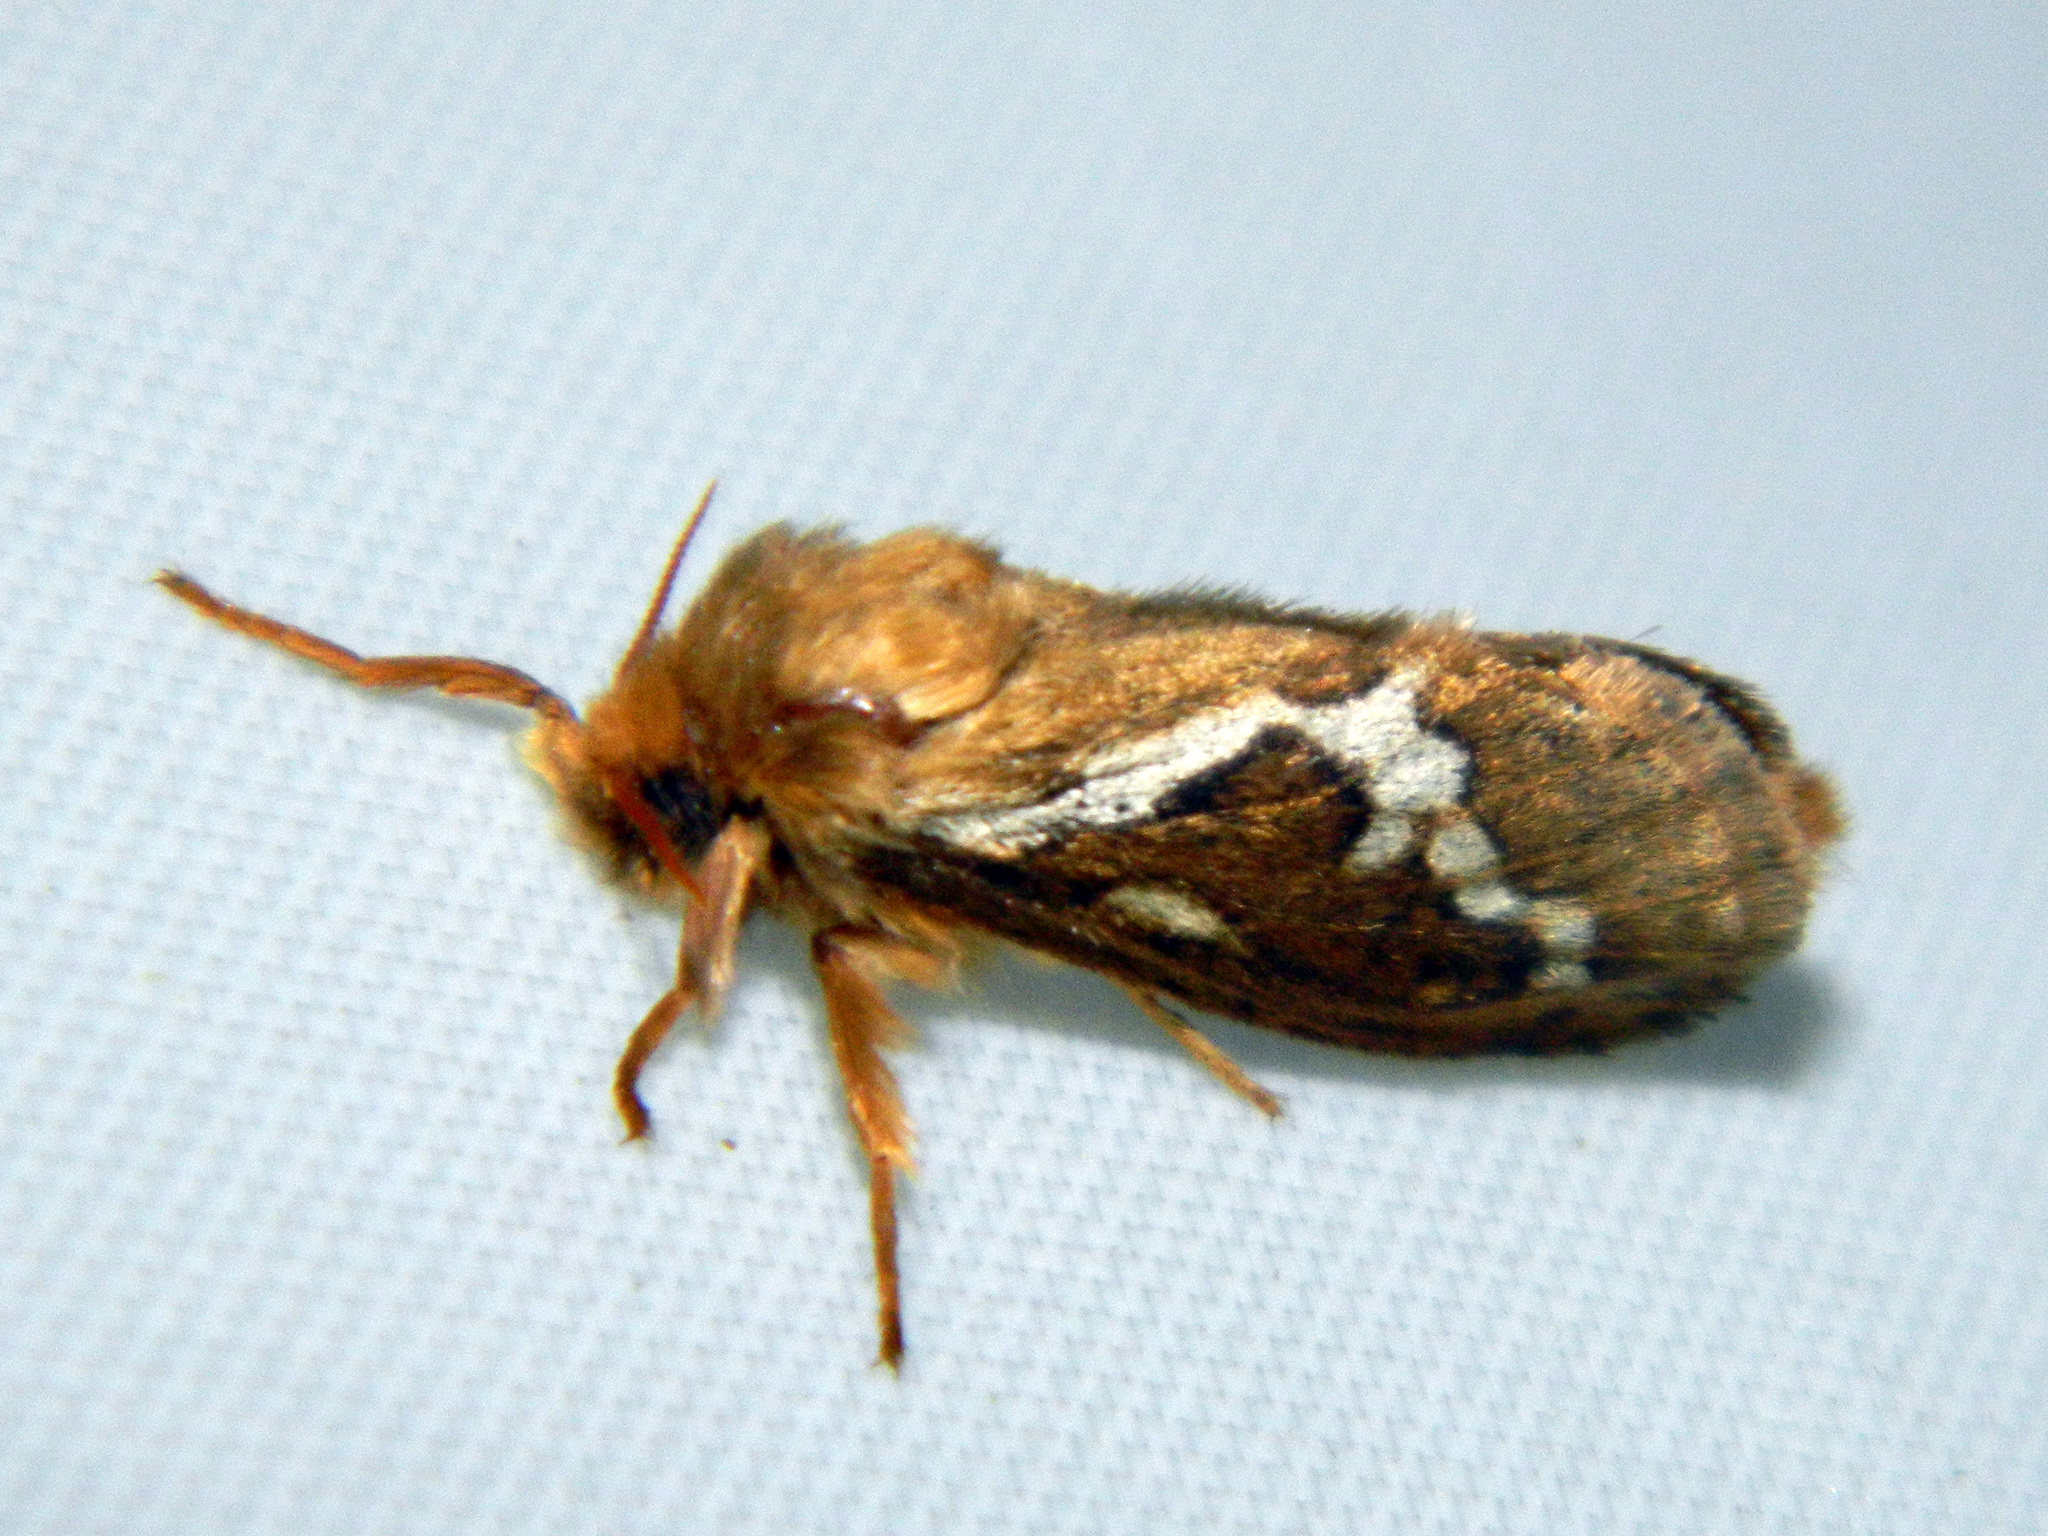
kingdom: Animalia
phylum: Arthropoda
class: Insecta
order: Lepidoptera
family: Hepialidae
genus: Korscheltellus
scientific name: Korscheltellus lupulina
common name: Common swift
